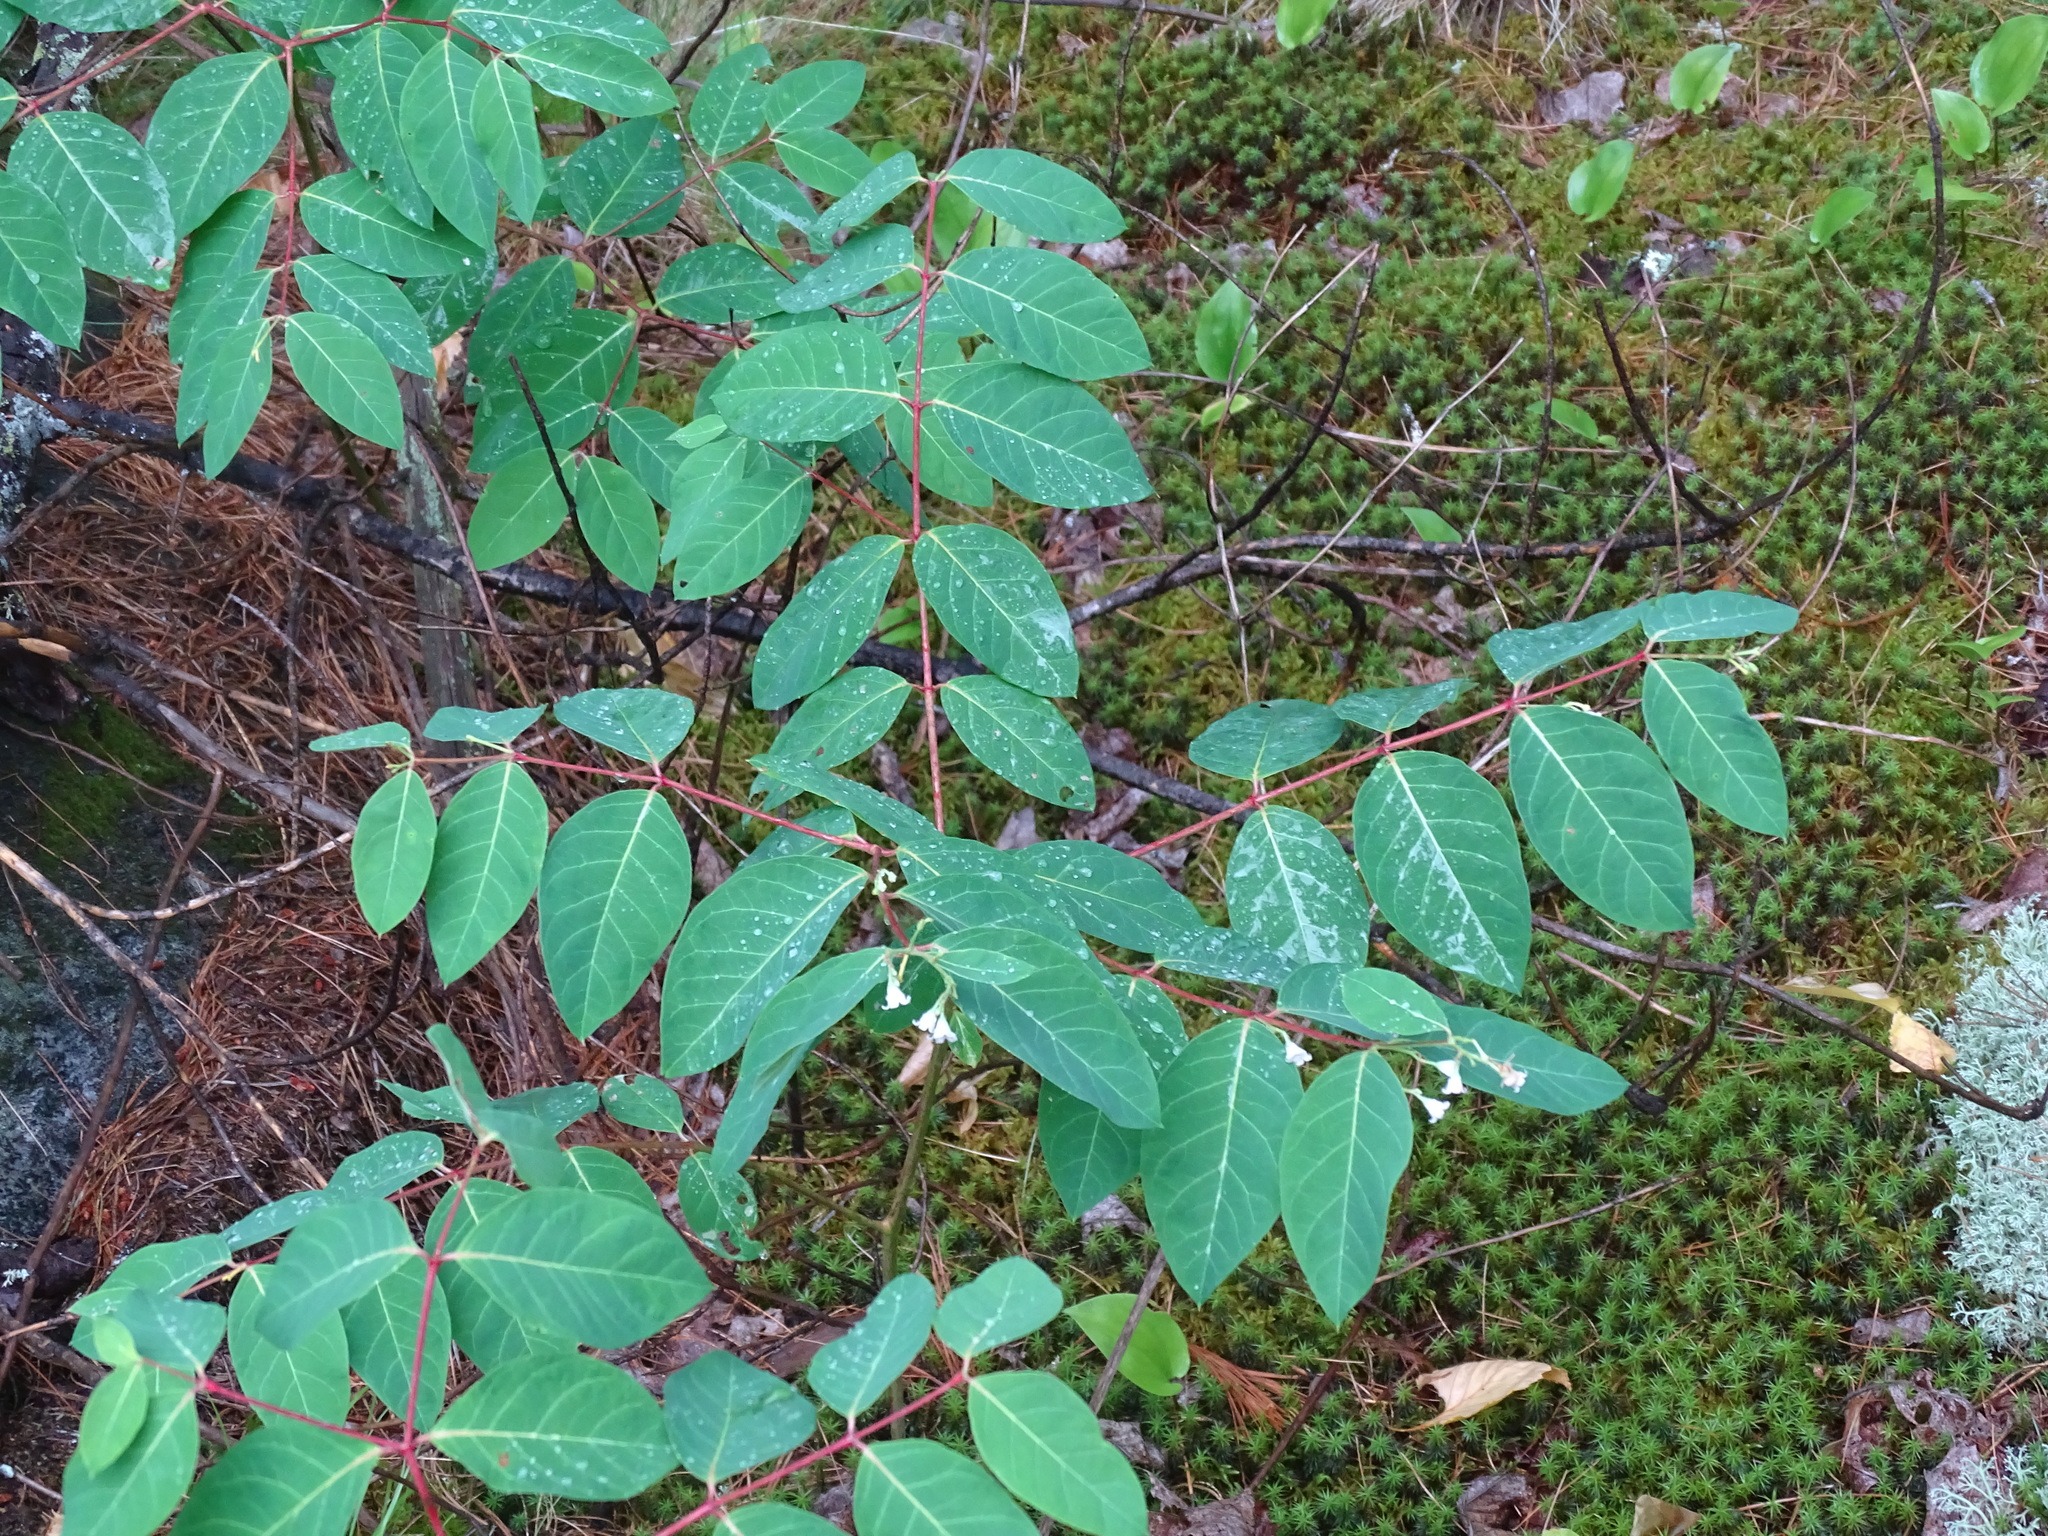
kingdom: Plantae
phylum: Tracheophyta
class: Magnoliopsida
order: Gentianales
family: Apocynaceae
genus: Apocynum
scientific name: Apocynum androsaemifolium
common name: Spreading dogbane
